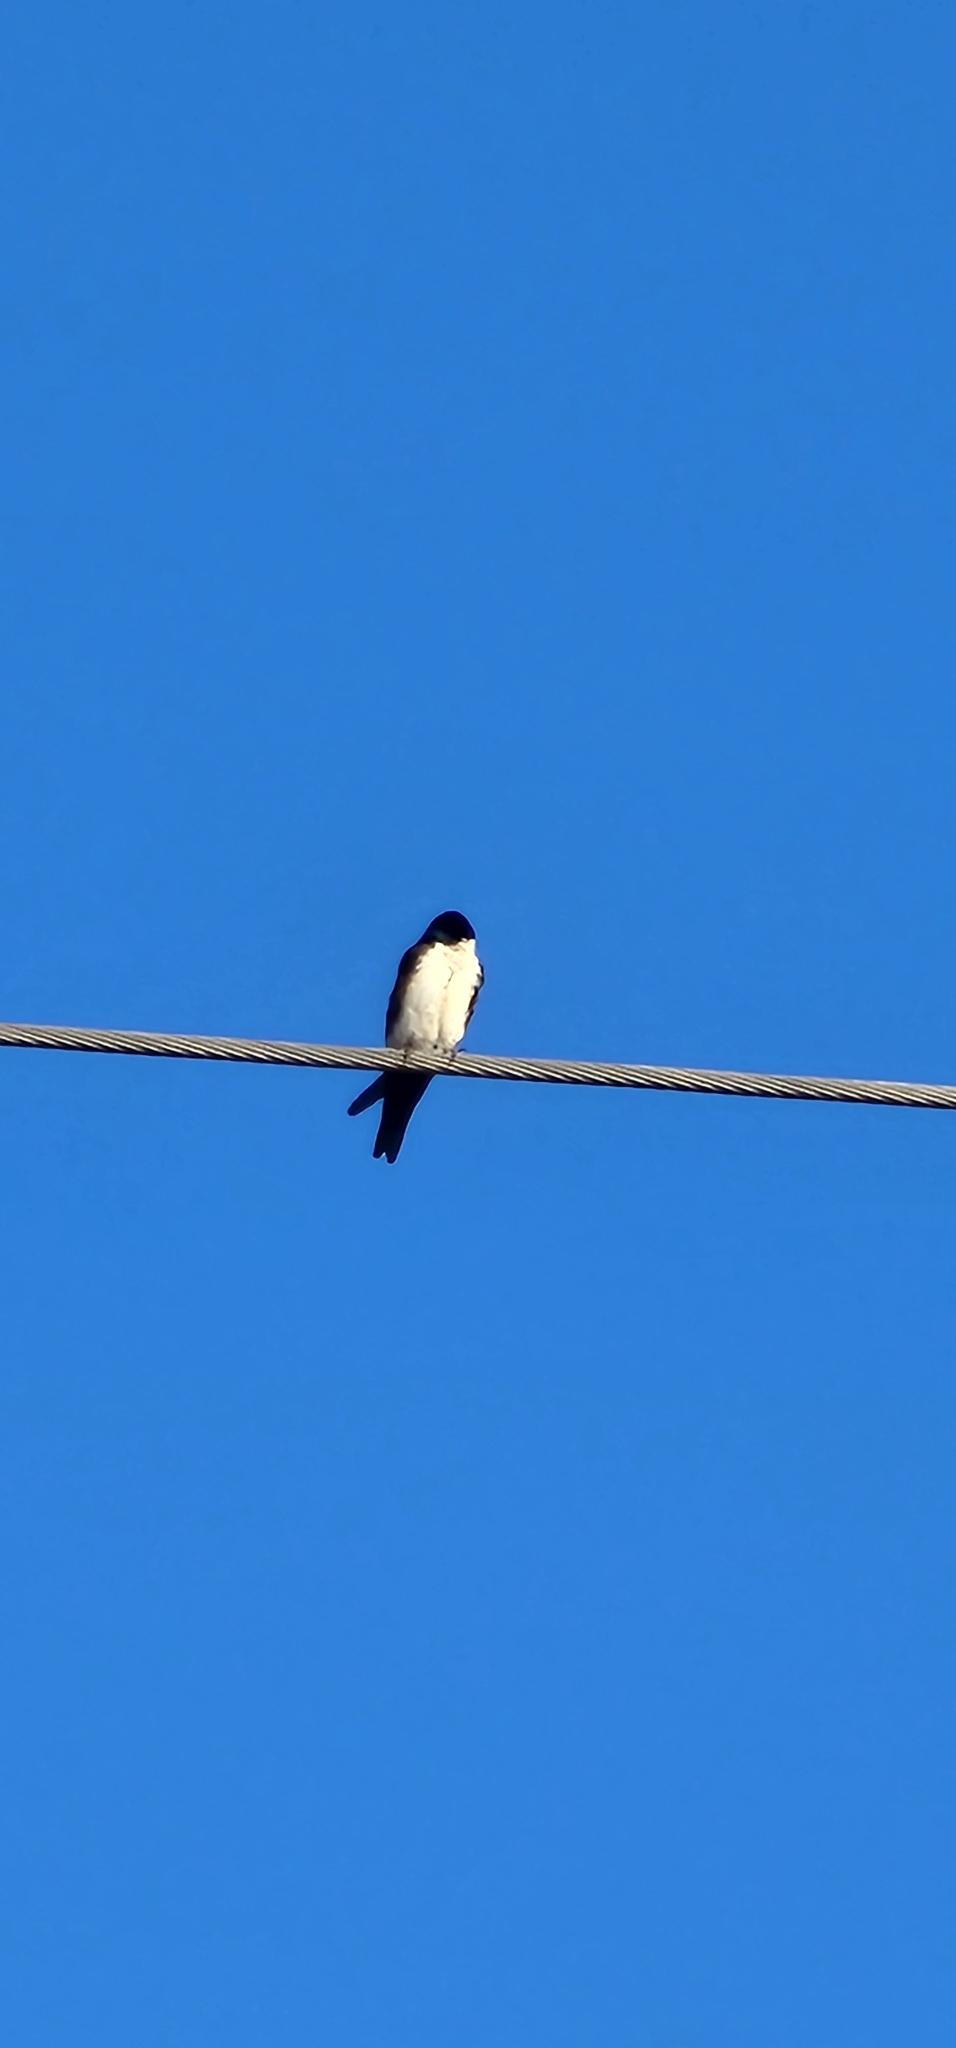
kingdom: Animalia
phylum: Chordata
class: Aves
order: Passeriformes
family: Hirundinidae
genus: Notiochelidon
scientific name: Notiochelidon cyanoleuca
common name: Blue-and-white swallow
